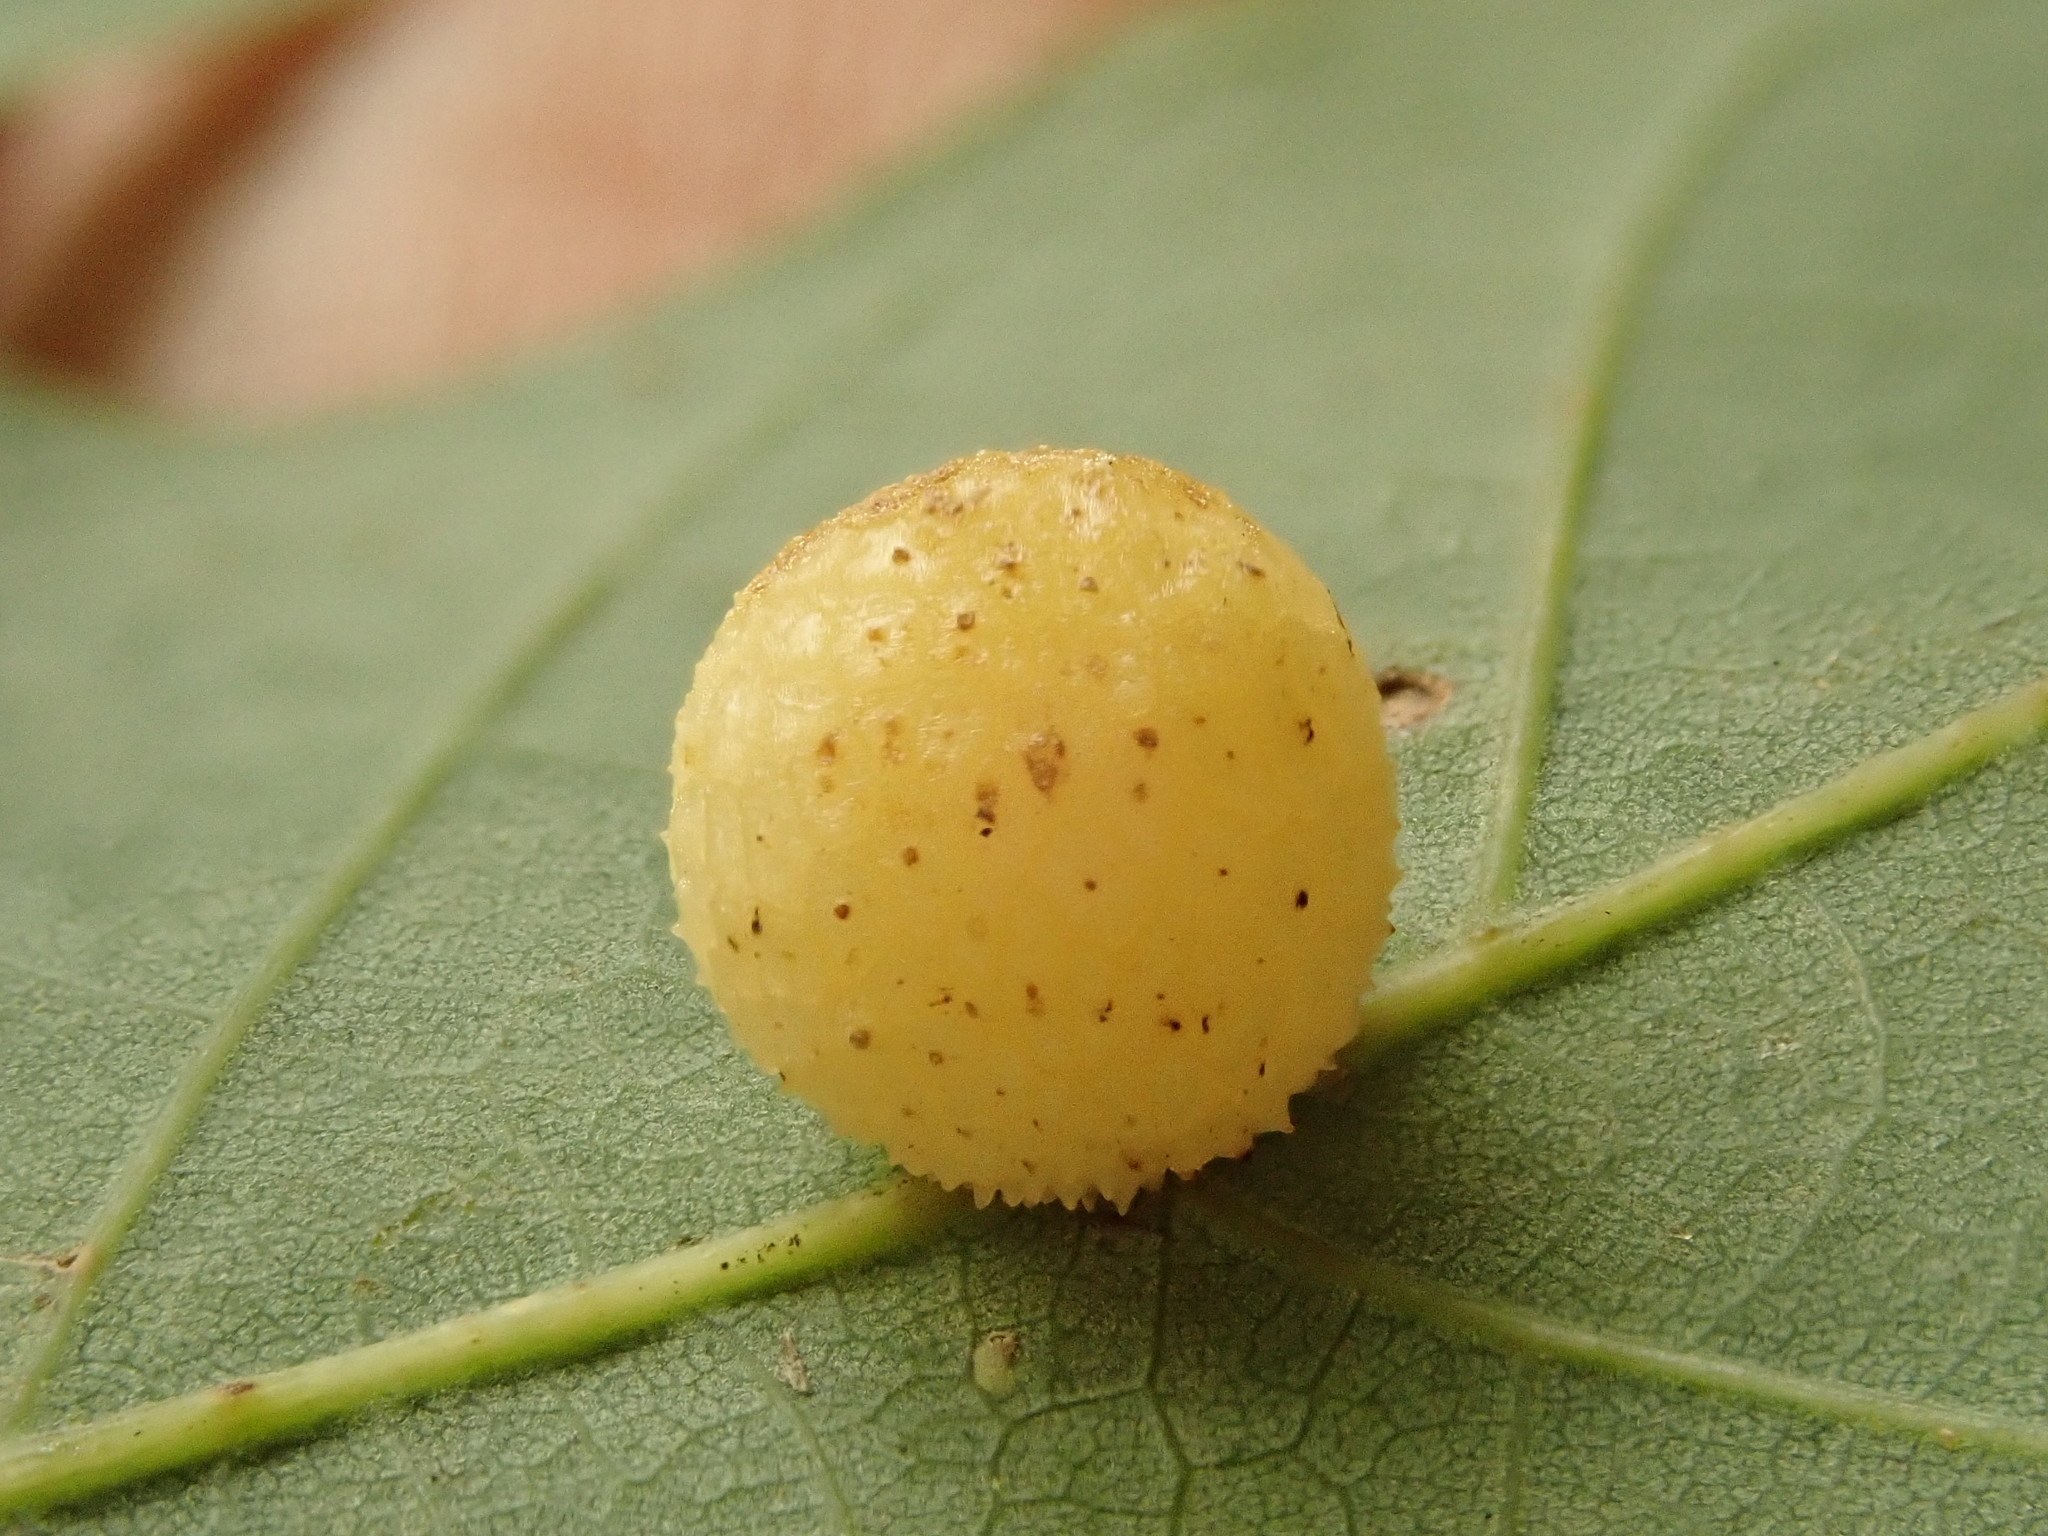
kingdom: Animalia
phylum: Arthropoda
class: Insecta
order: Hymenoptera
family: Cynipidae
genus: Acraspis
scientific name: Acraspis
